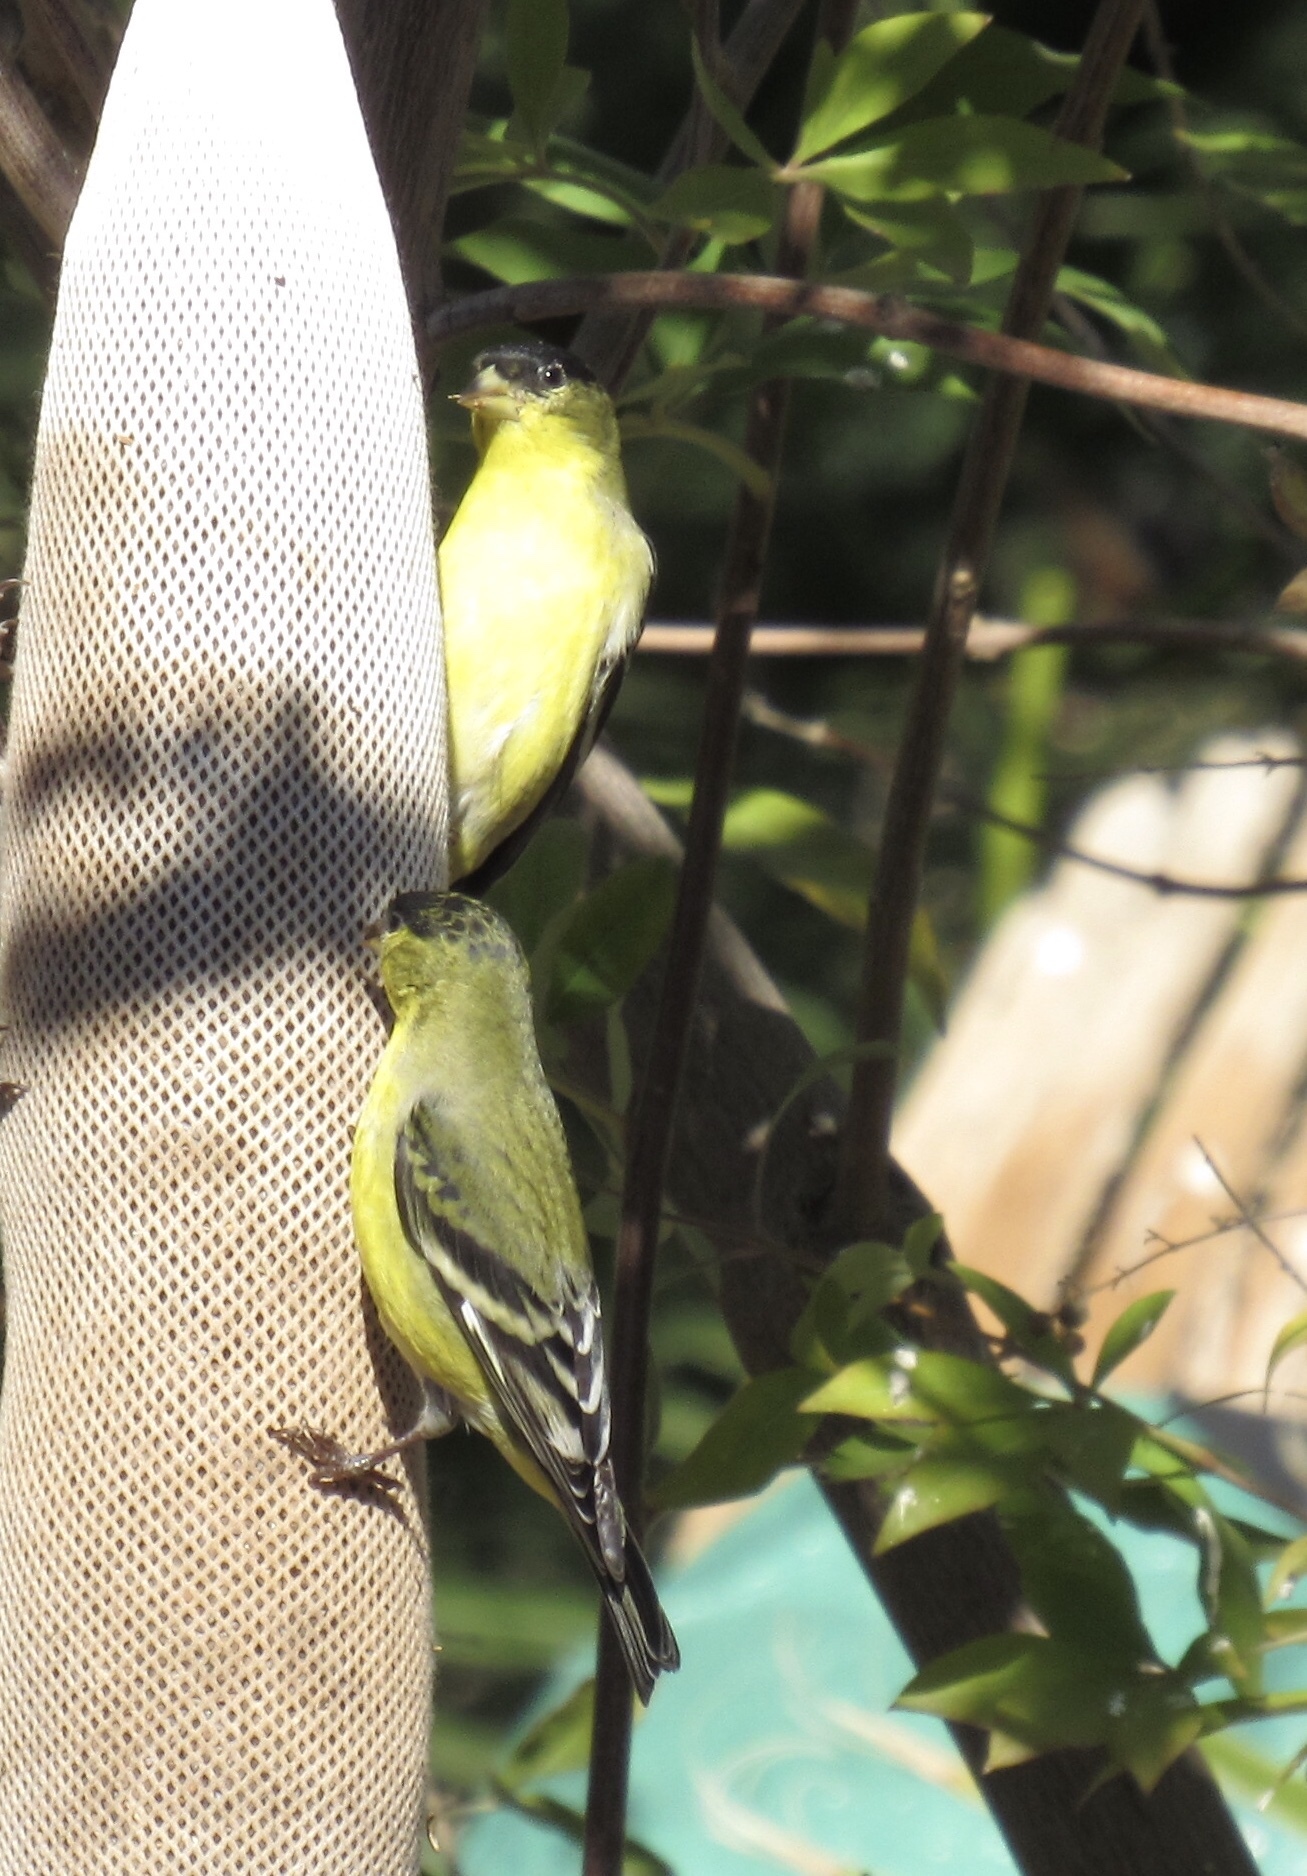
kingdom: Animalia
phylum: Chordata
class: Aves
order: Passeriformes
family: Fringillidae
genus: Spinus
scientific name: Spinus psaltria
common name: Lesser goldfinch
